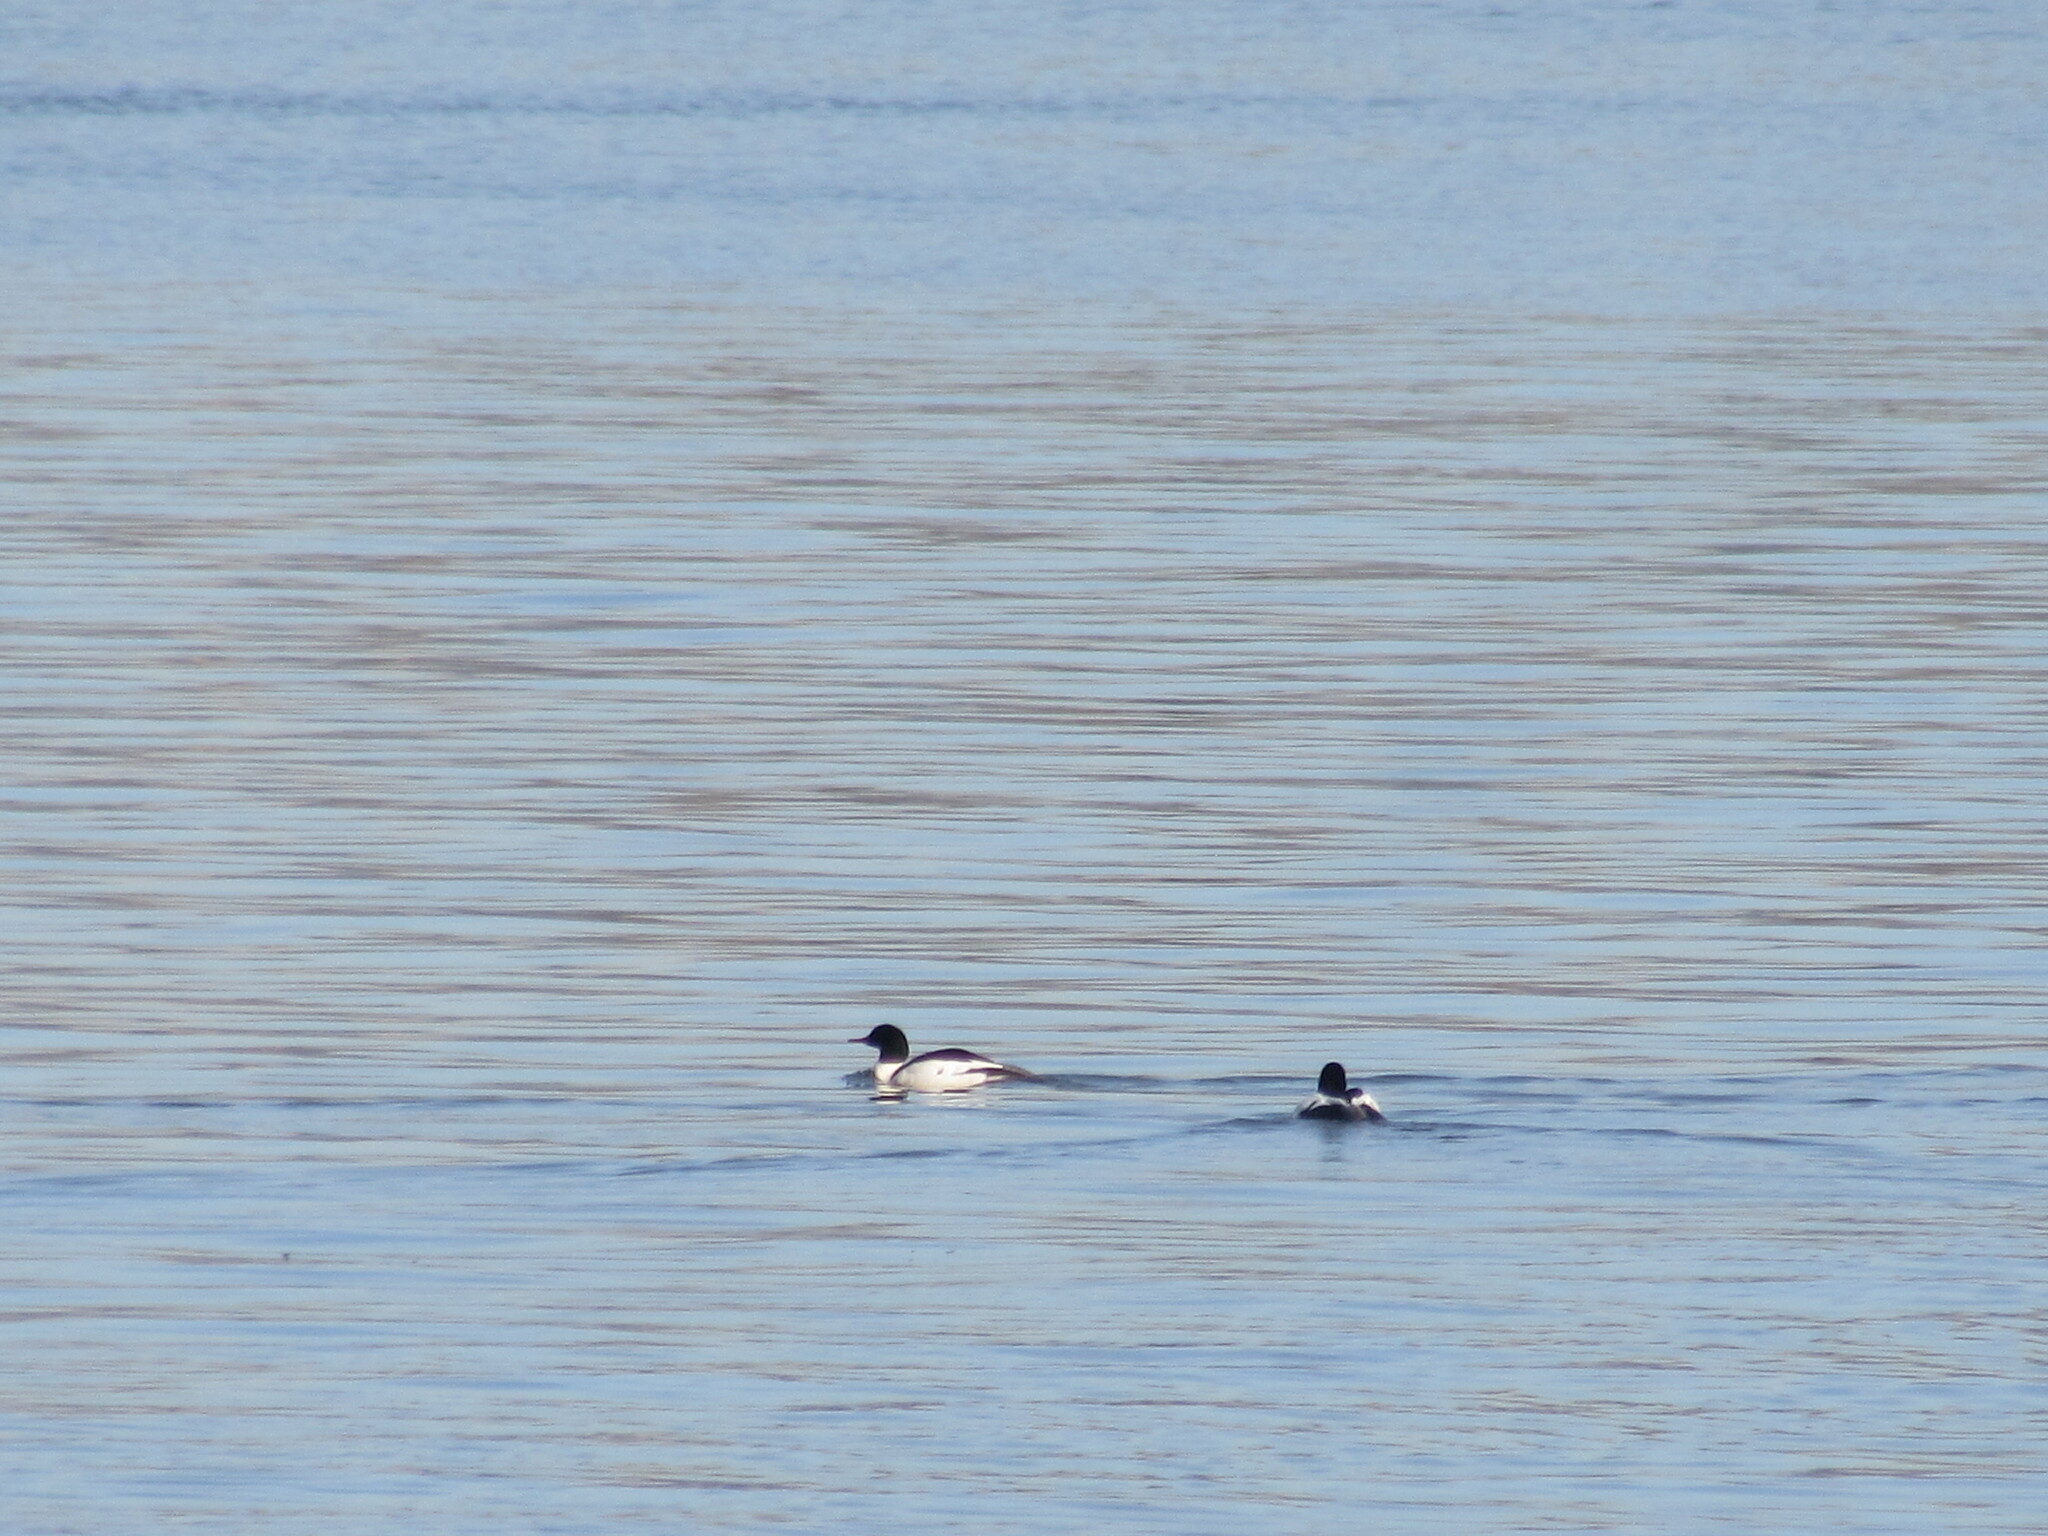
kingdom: Animalia
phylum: Chordata
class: Aves
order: Anseriformes
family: Anatidae
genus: Mergus
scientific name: Mergus merganser
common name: Common merganser
